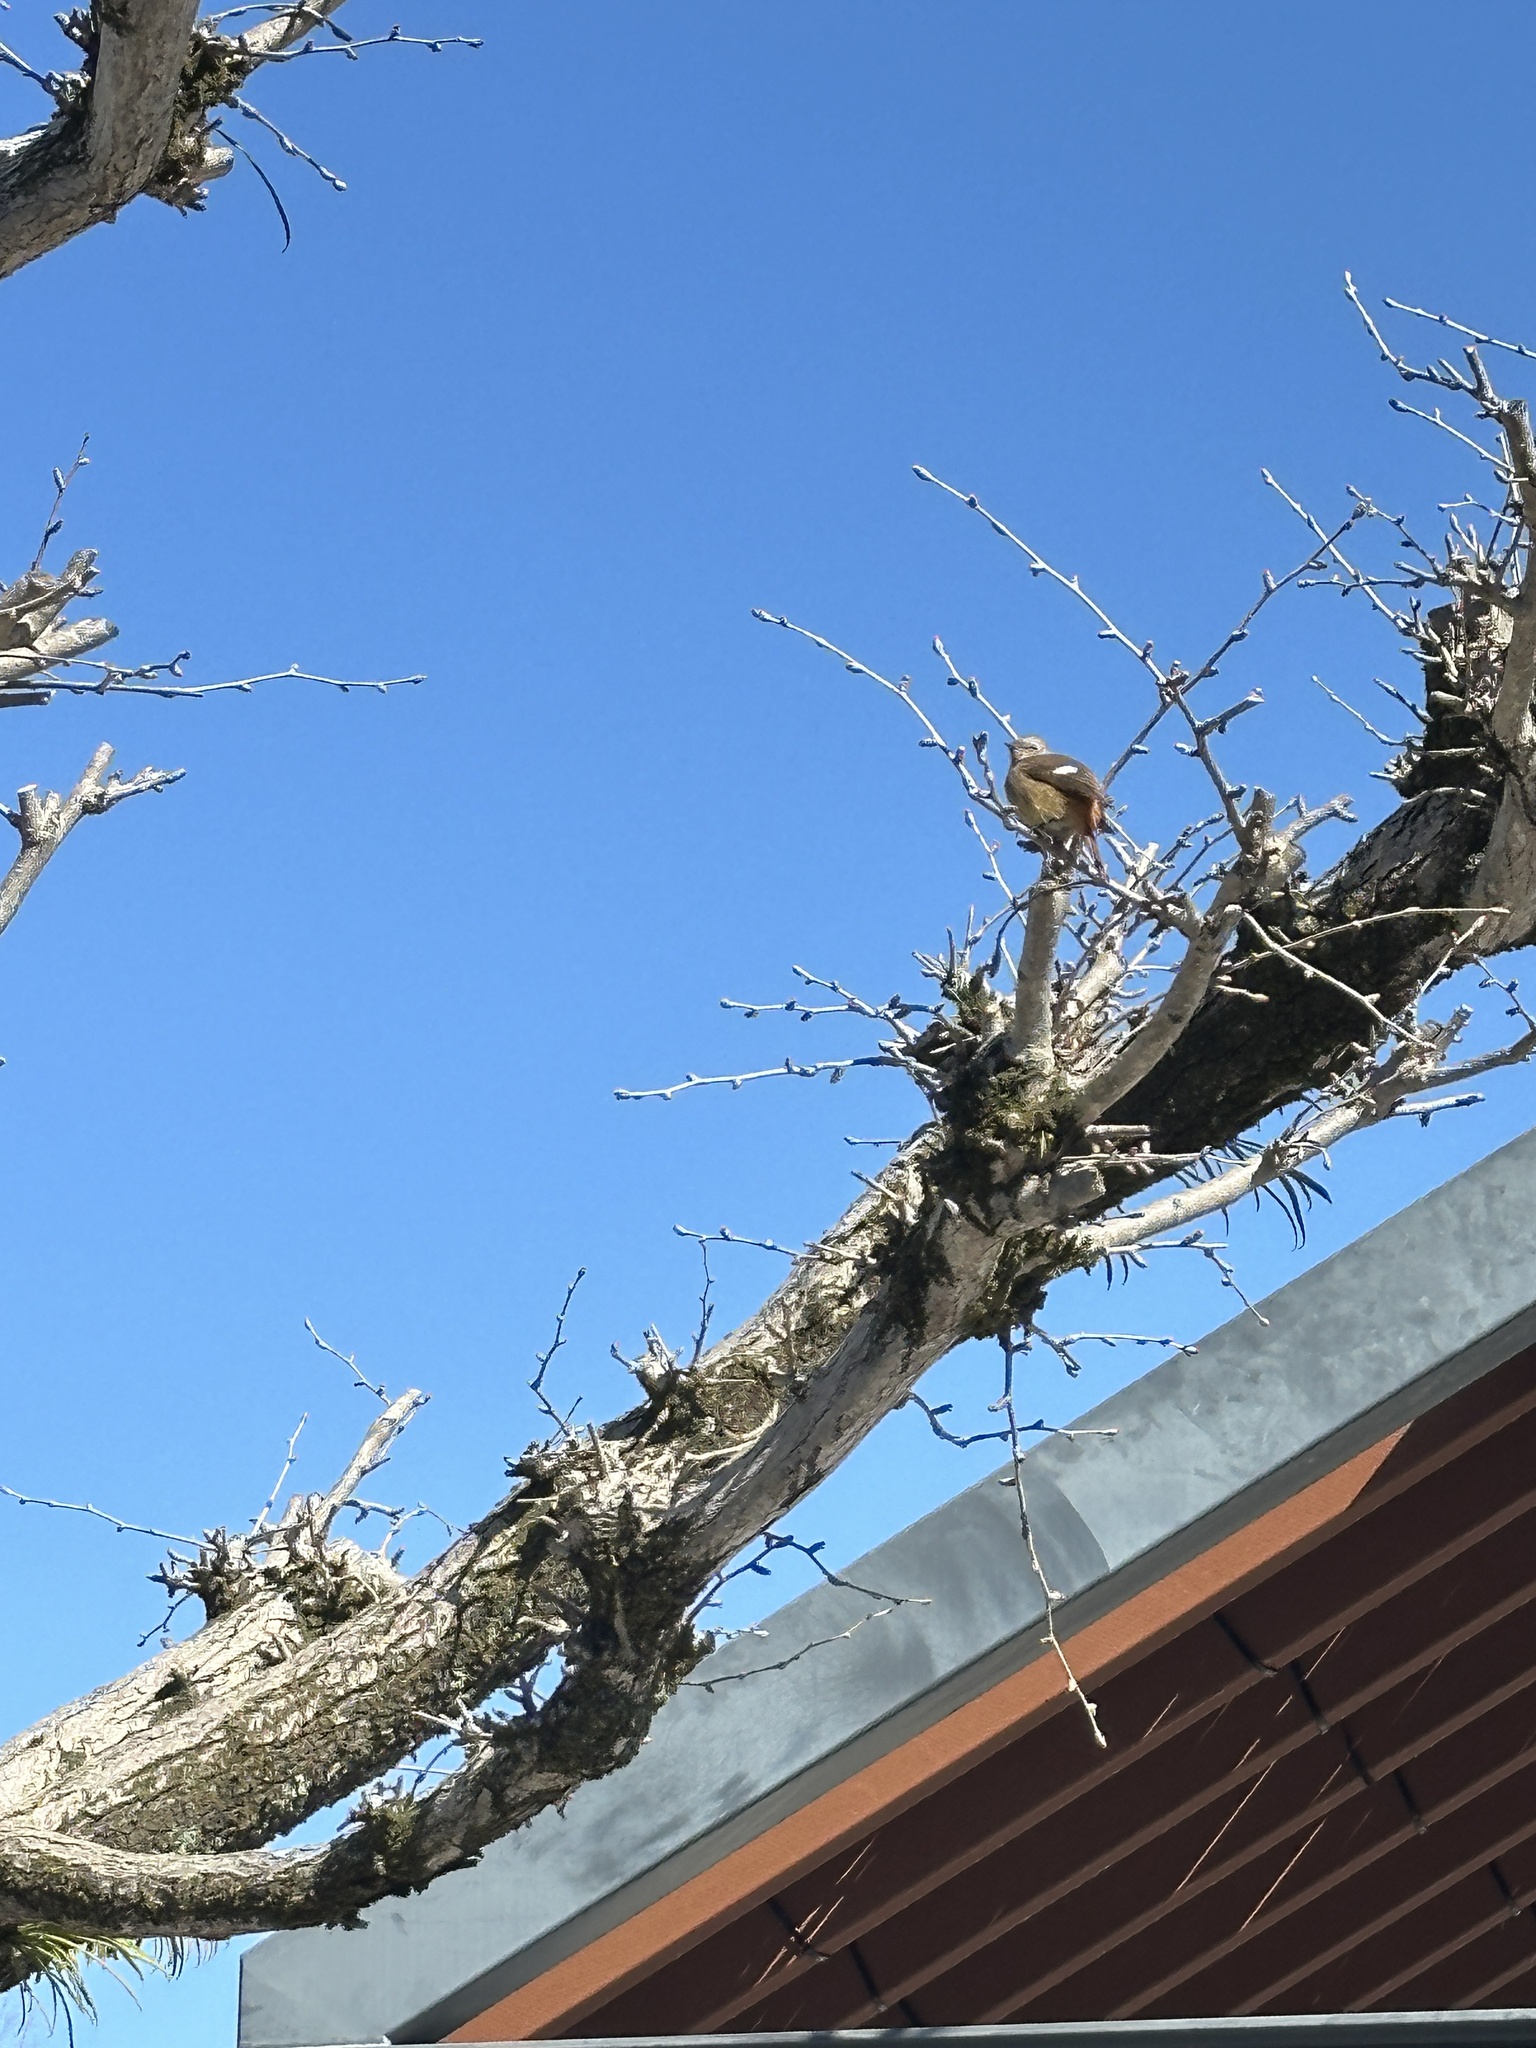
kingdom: Animalia
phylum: Chordata
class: Aves
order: Passeriformes
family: Muscicapidae
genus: Phoenicurus
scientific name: Phoenicurus auroreus
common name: Daurian redstart
